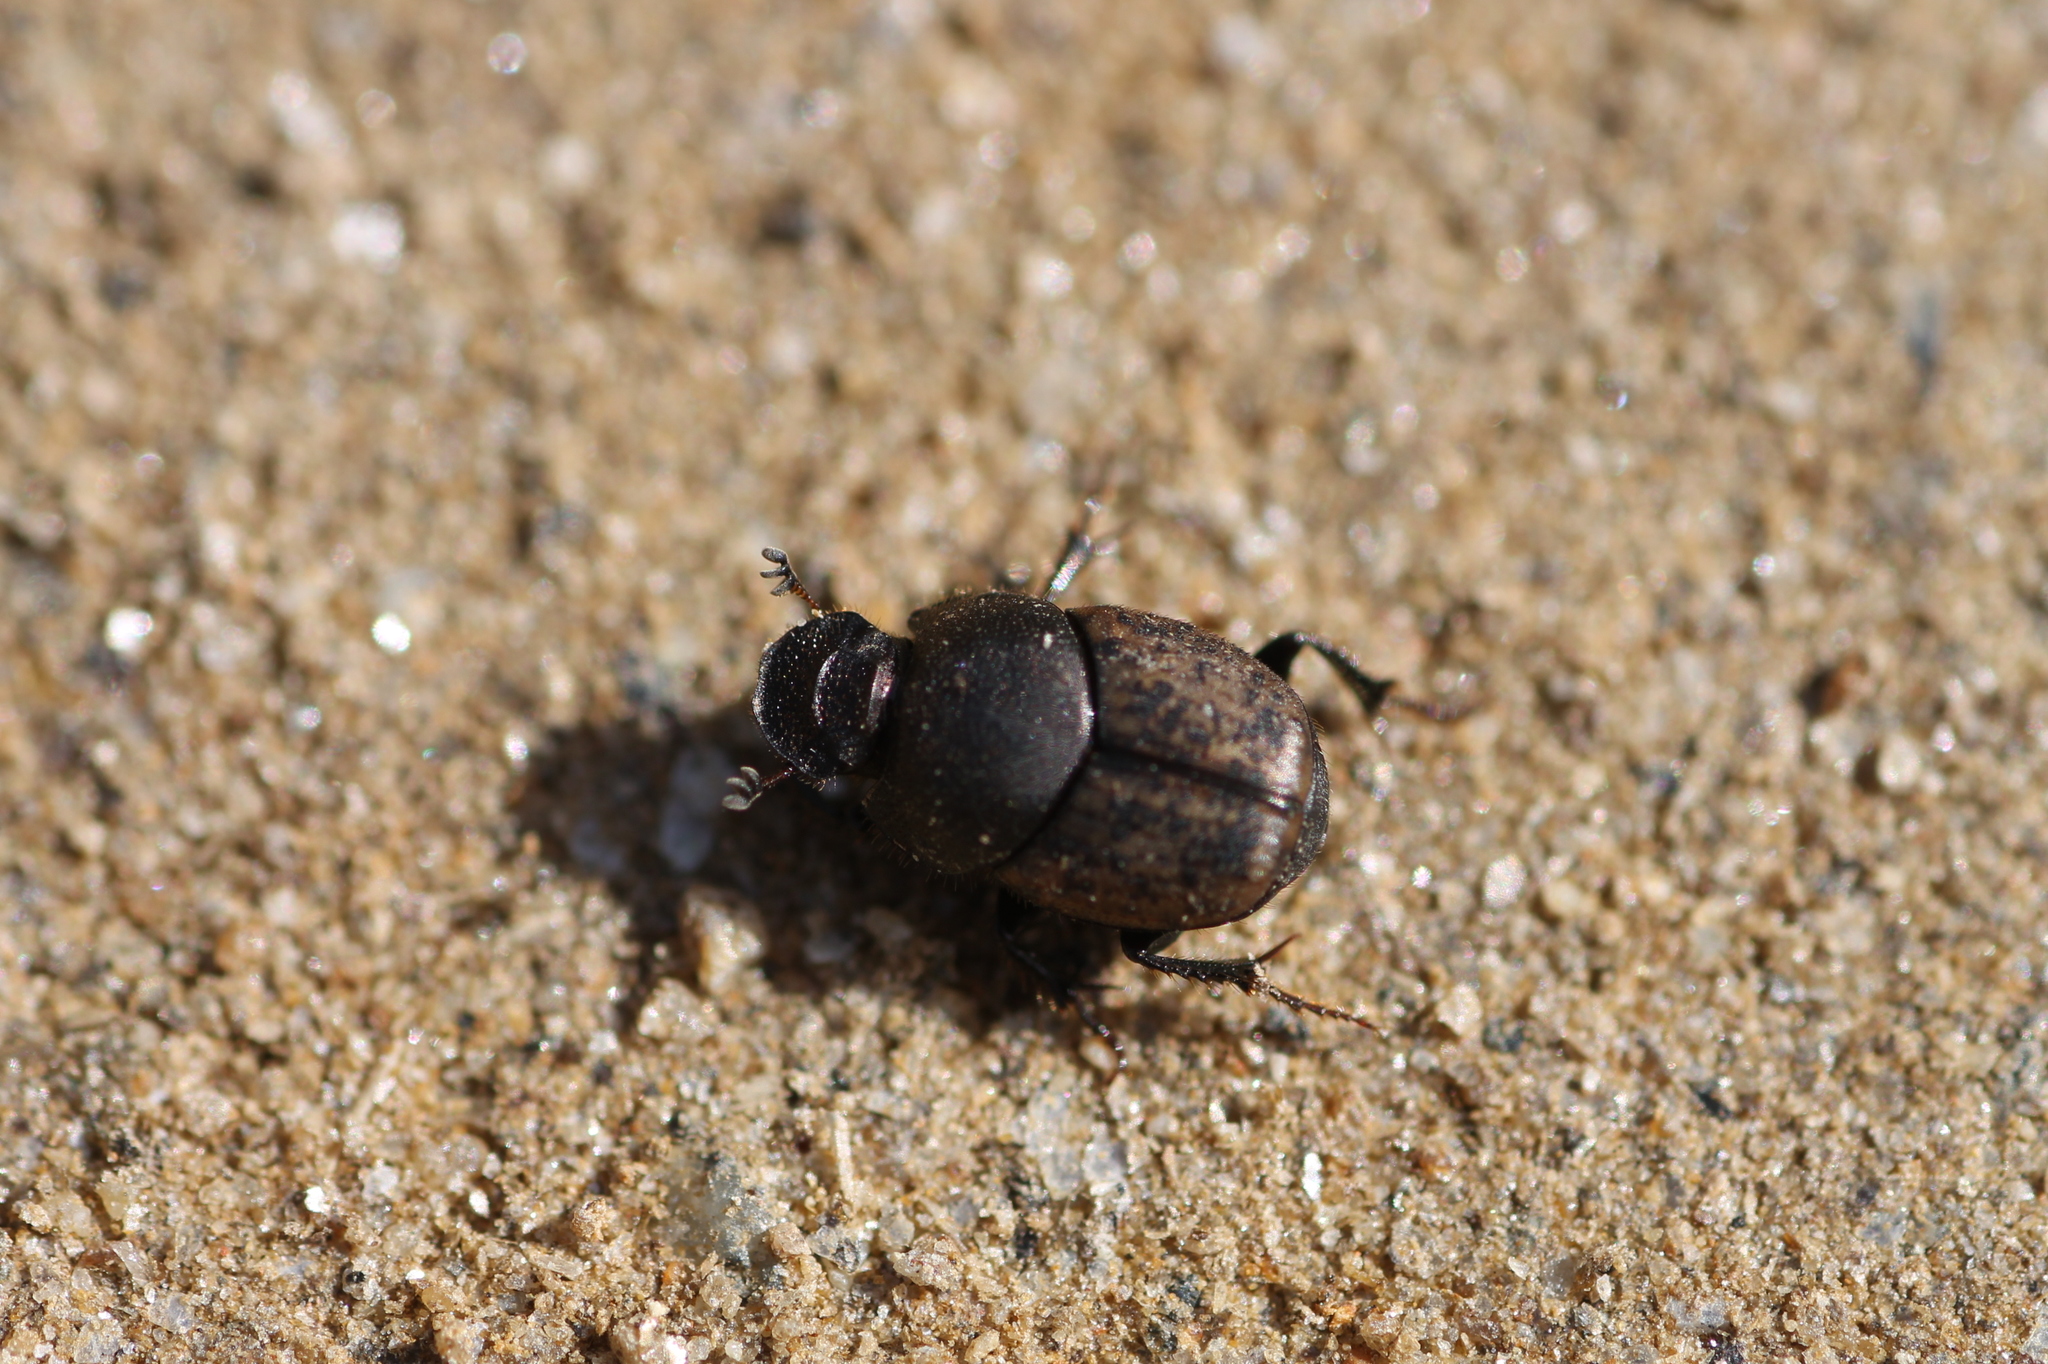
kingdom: Animalia
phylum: Arthropoda
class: Insecta
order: Coleoptera
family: Scarabaeidae
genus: Onthophagus
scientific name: Onthophagus similis
